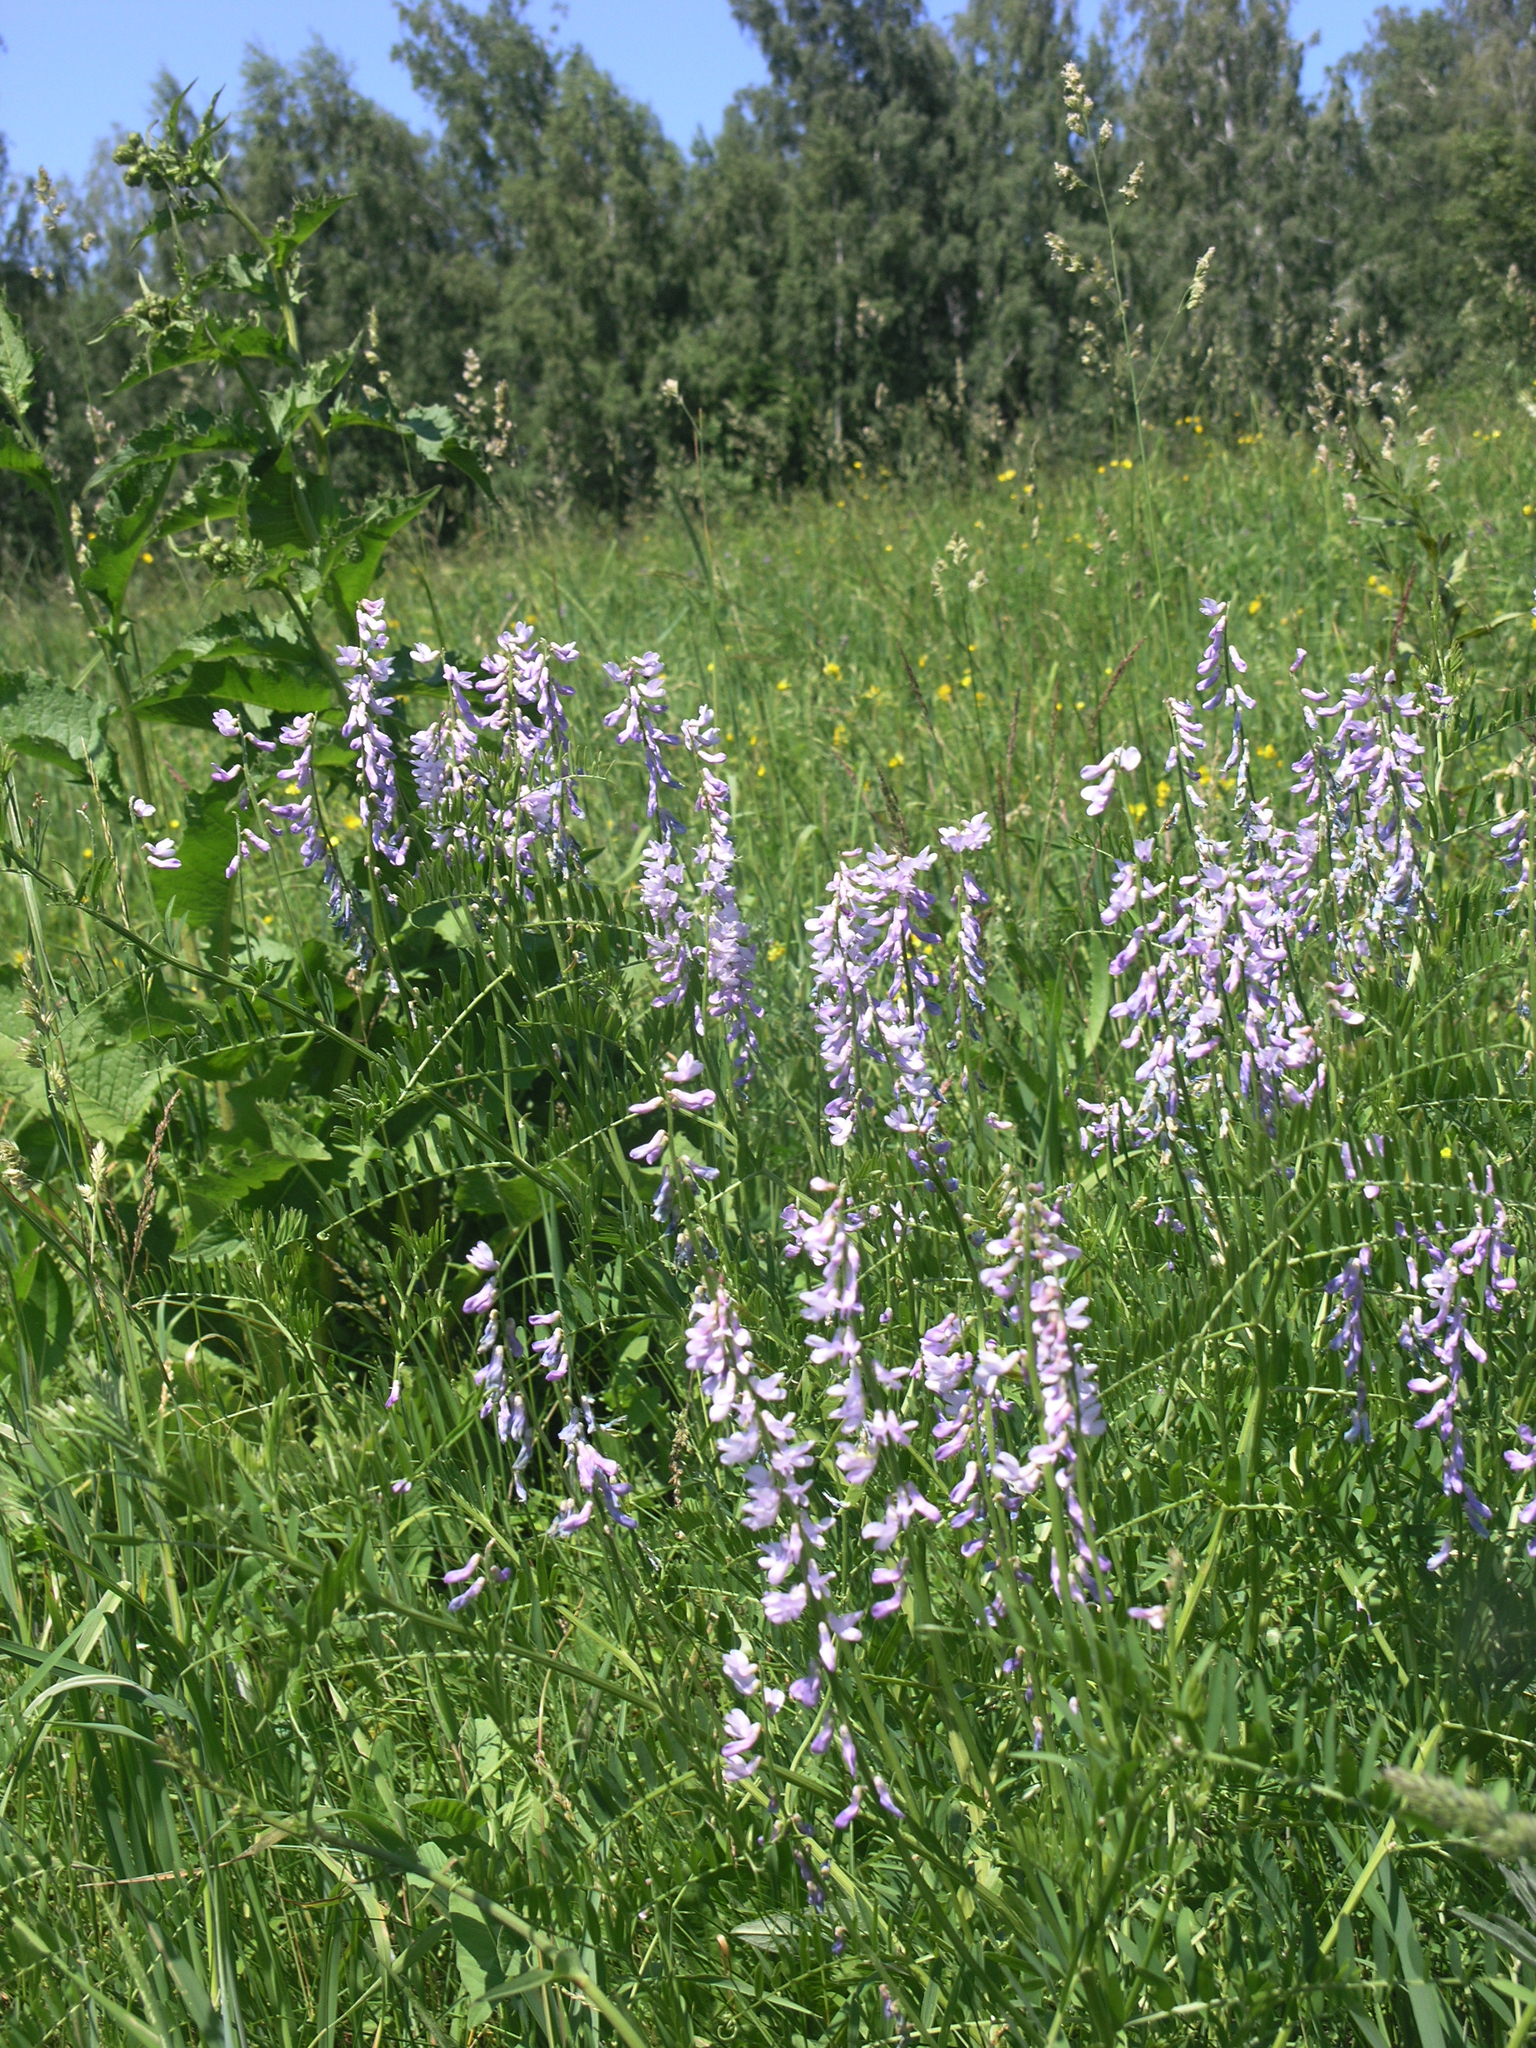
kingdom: Plantae
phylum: Tracheophyta
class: Magnoliopsida
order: Fabales
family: Fabaceae
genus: Vicia
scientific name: Vicia tenuifolia
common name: Fine-leaved vetch
